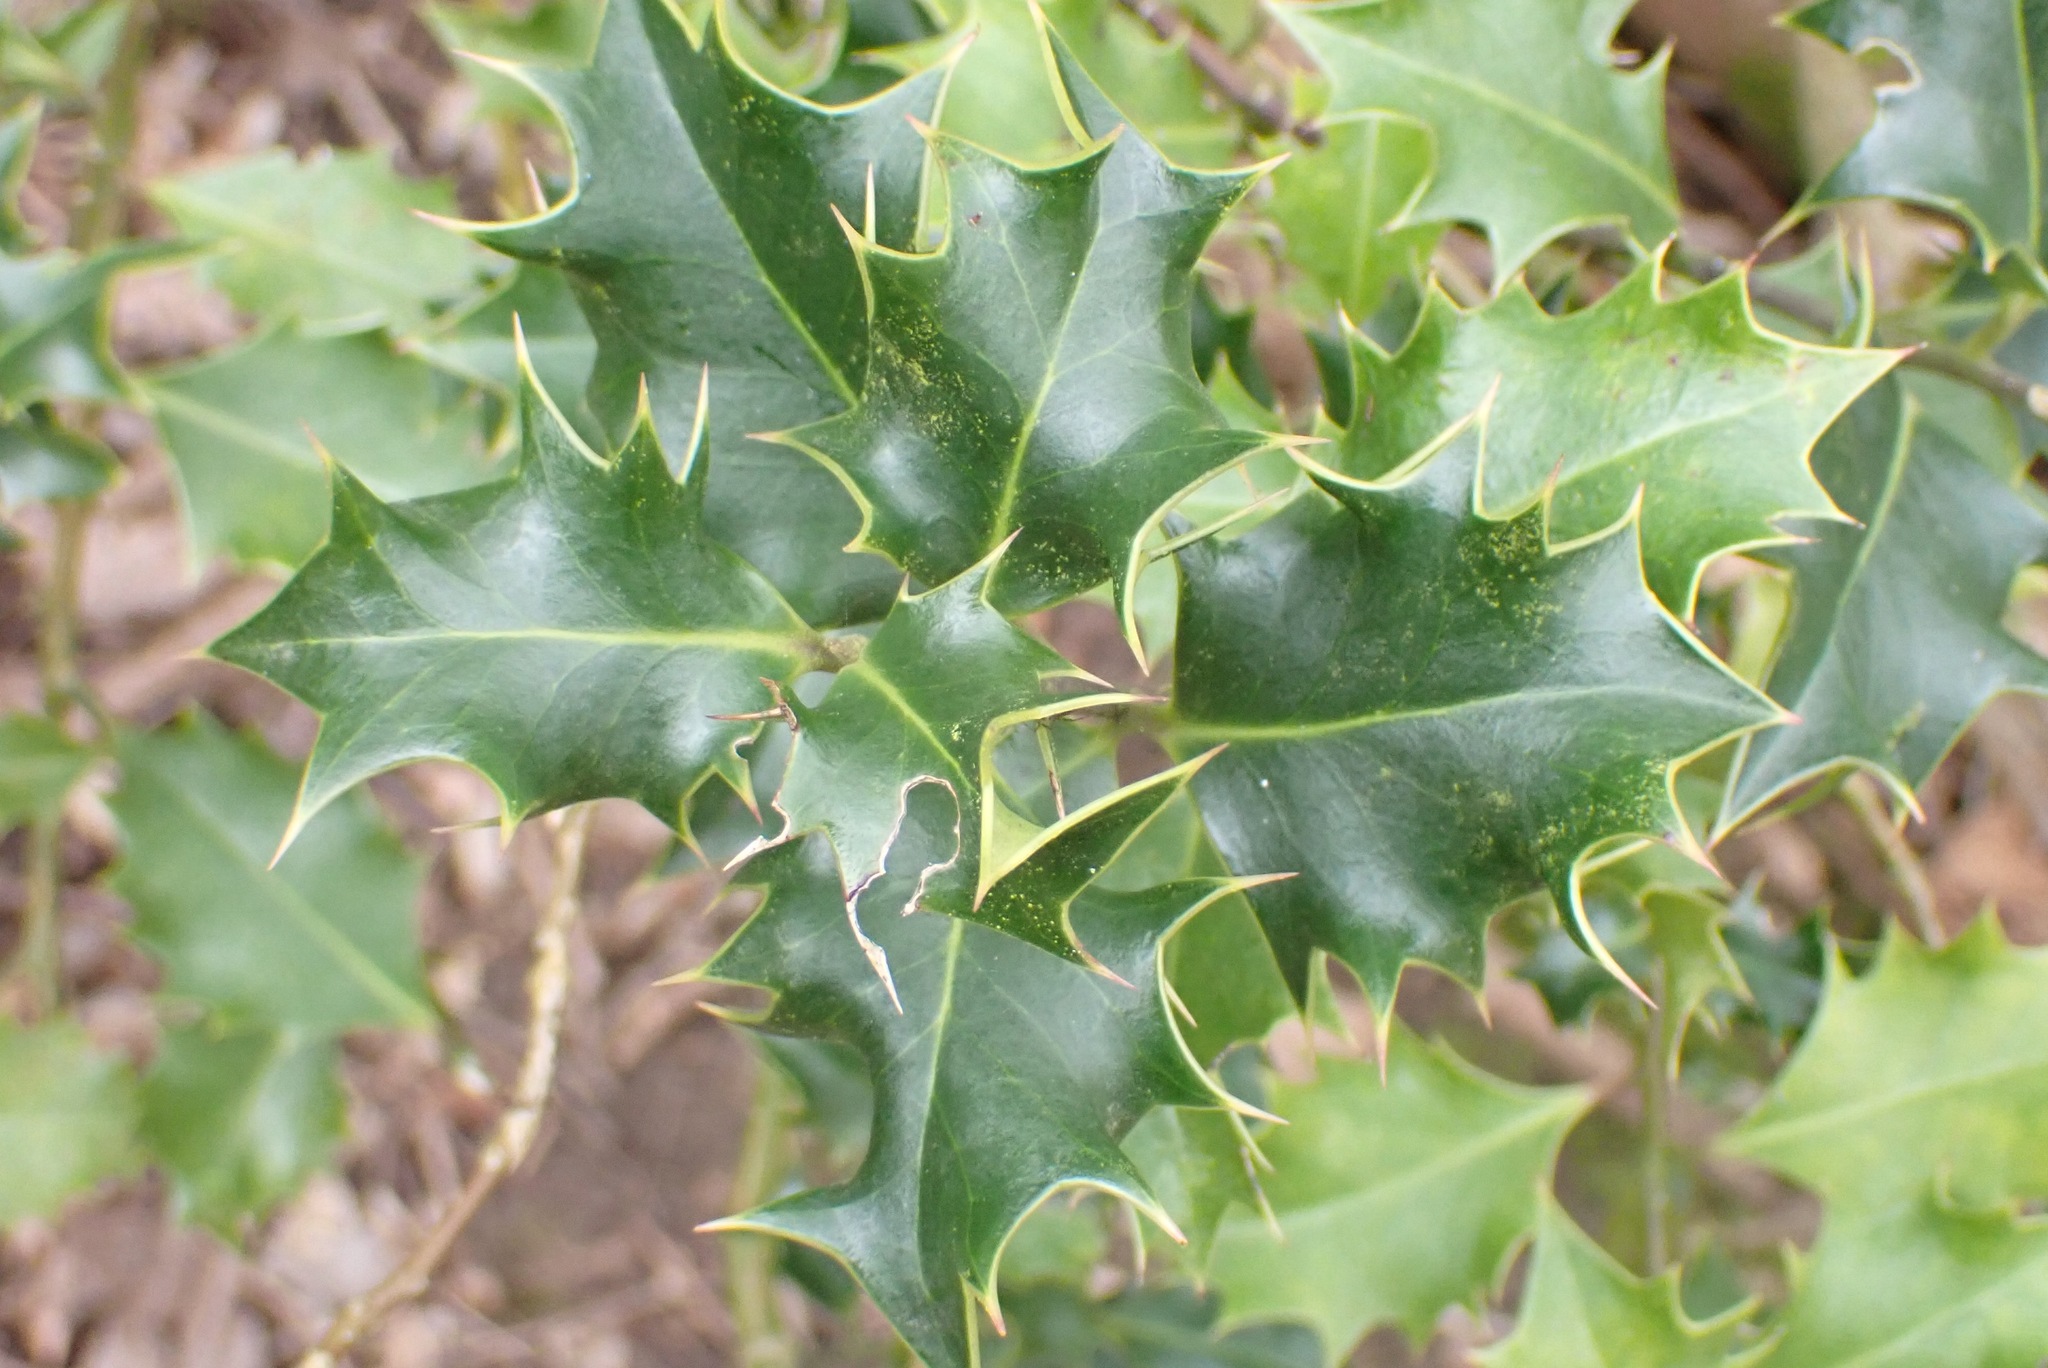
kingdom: Plantae
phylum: Tracheophyta
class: Magnoliopsida
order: Aquifoliales
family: Aquifoliaceae
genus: Ilex
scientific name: Ilex aquifolium
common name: English holly
